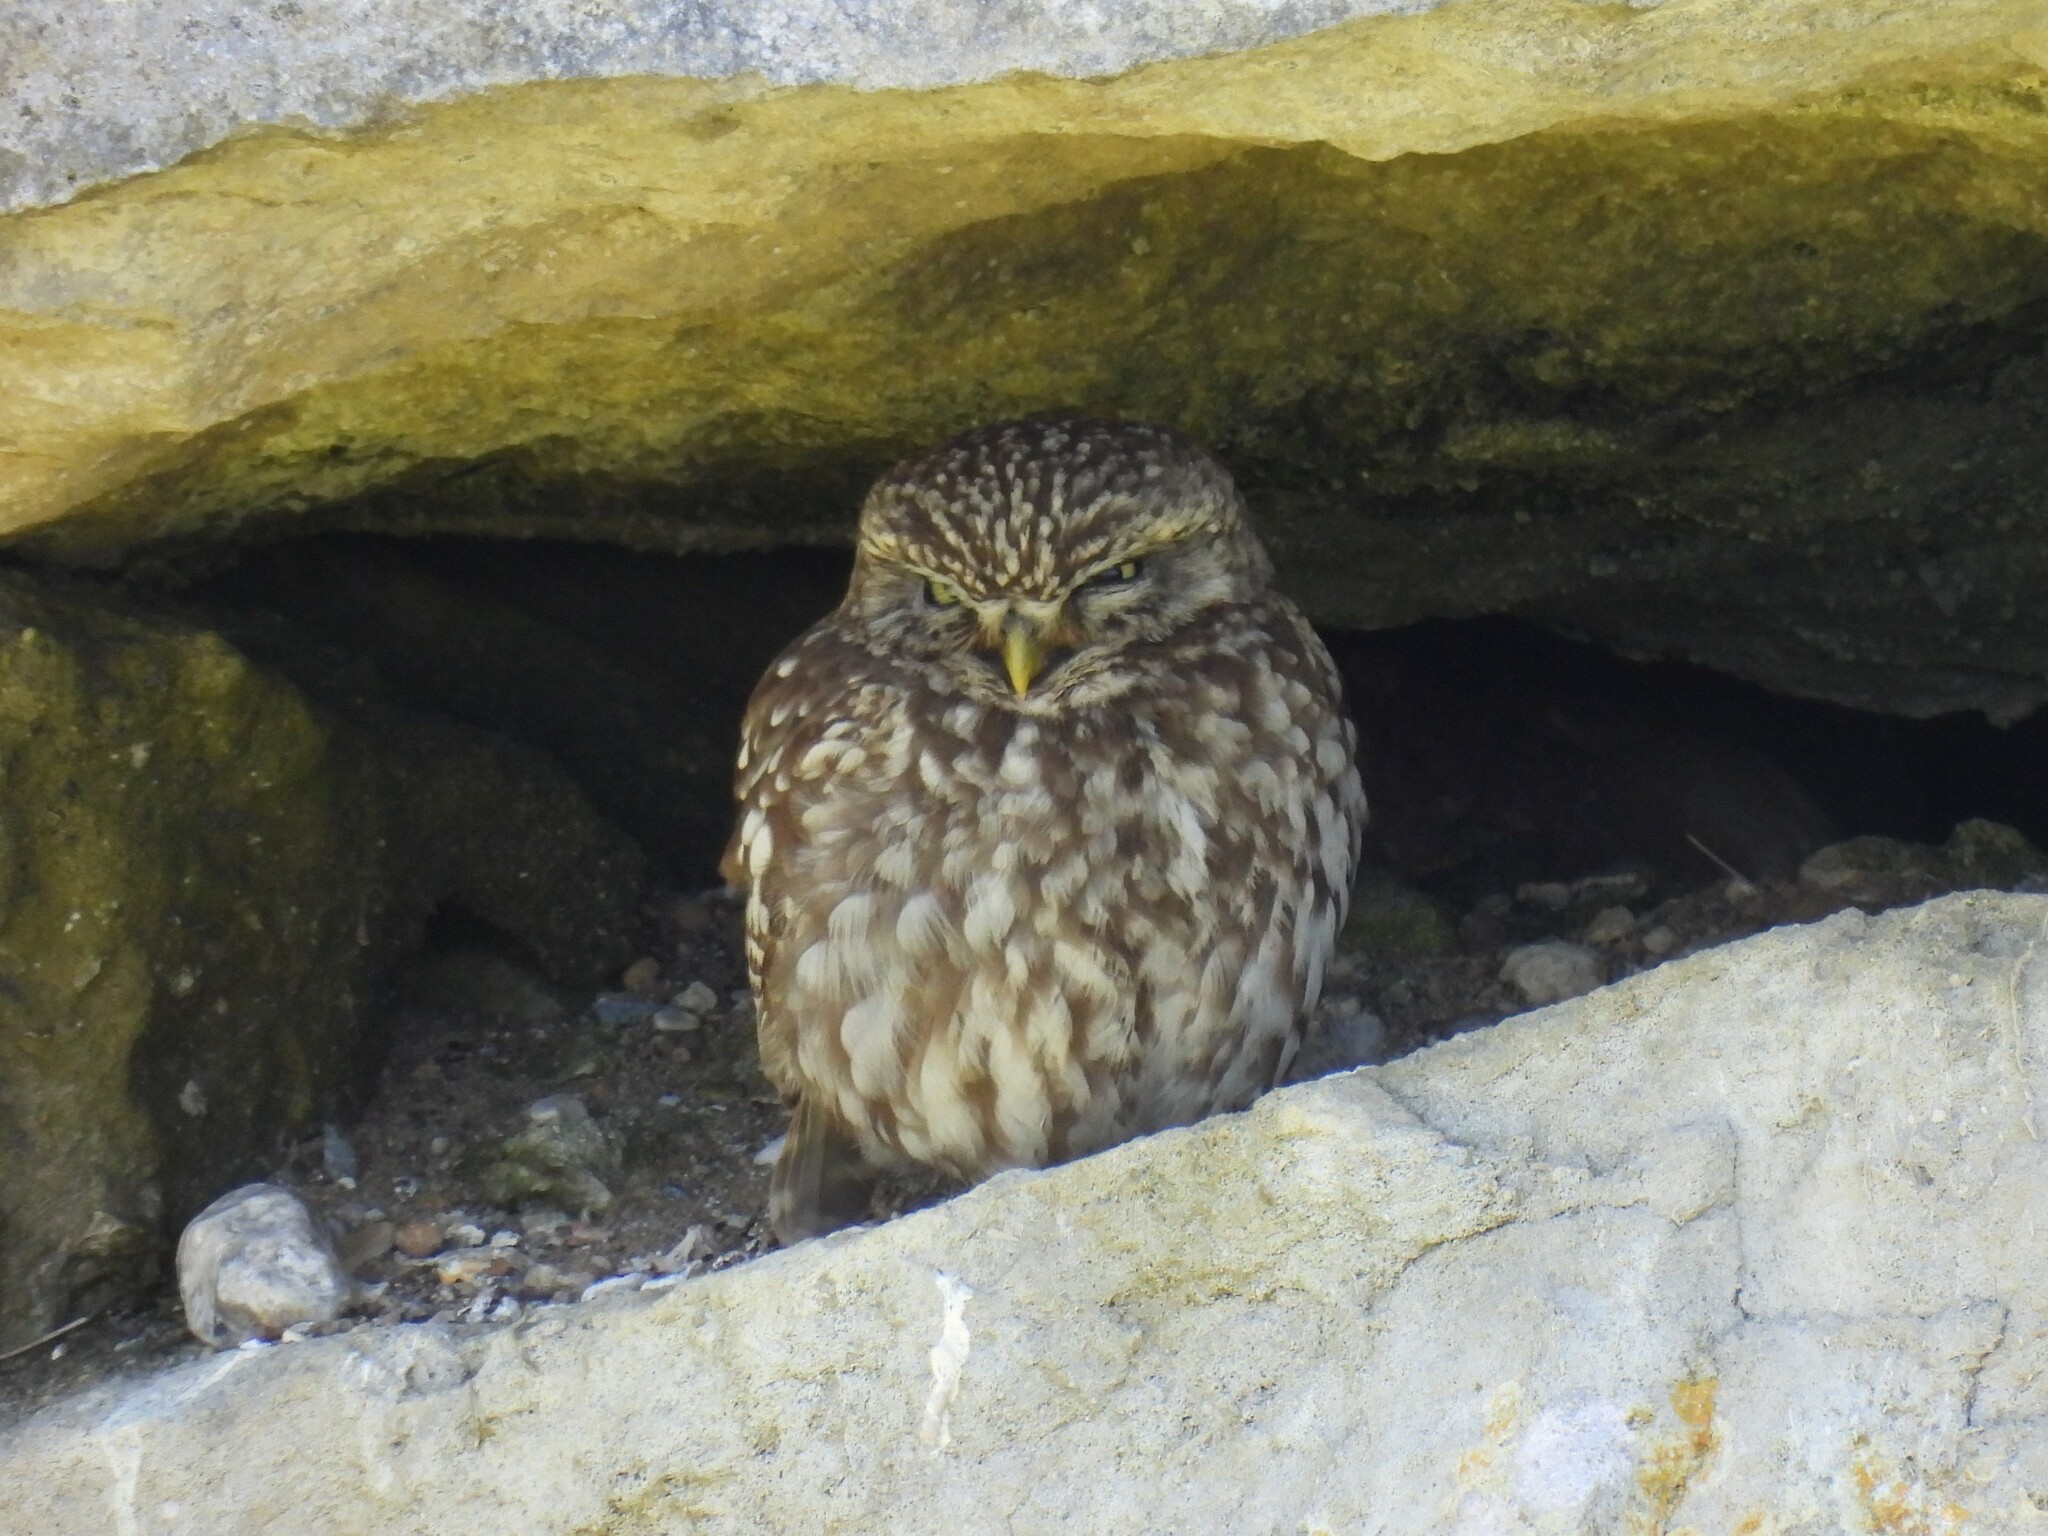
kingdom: Animalia
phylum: Chordata
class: Aves
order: Strigiformes
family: Strigidae
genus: Athene
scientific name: Athene noctua
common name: Little owl
